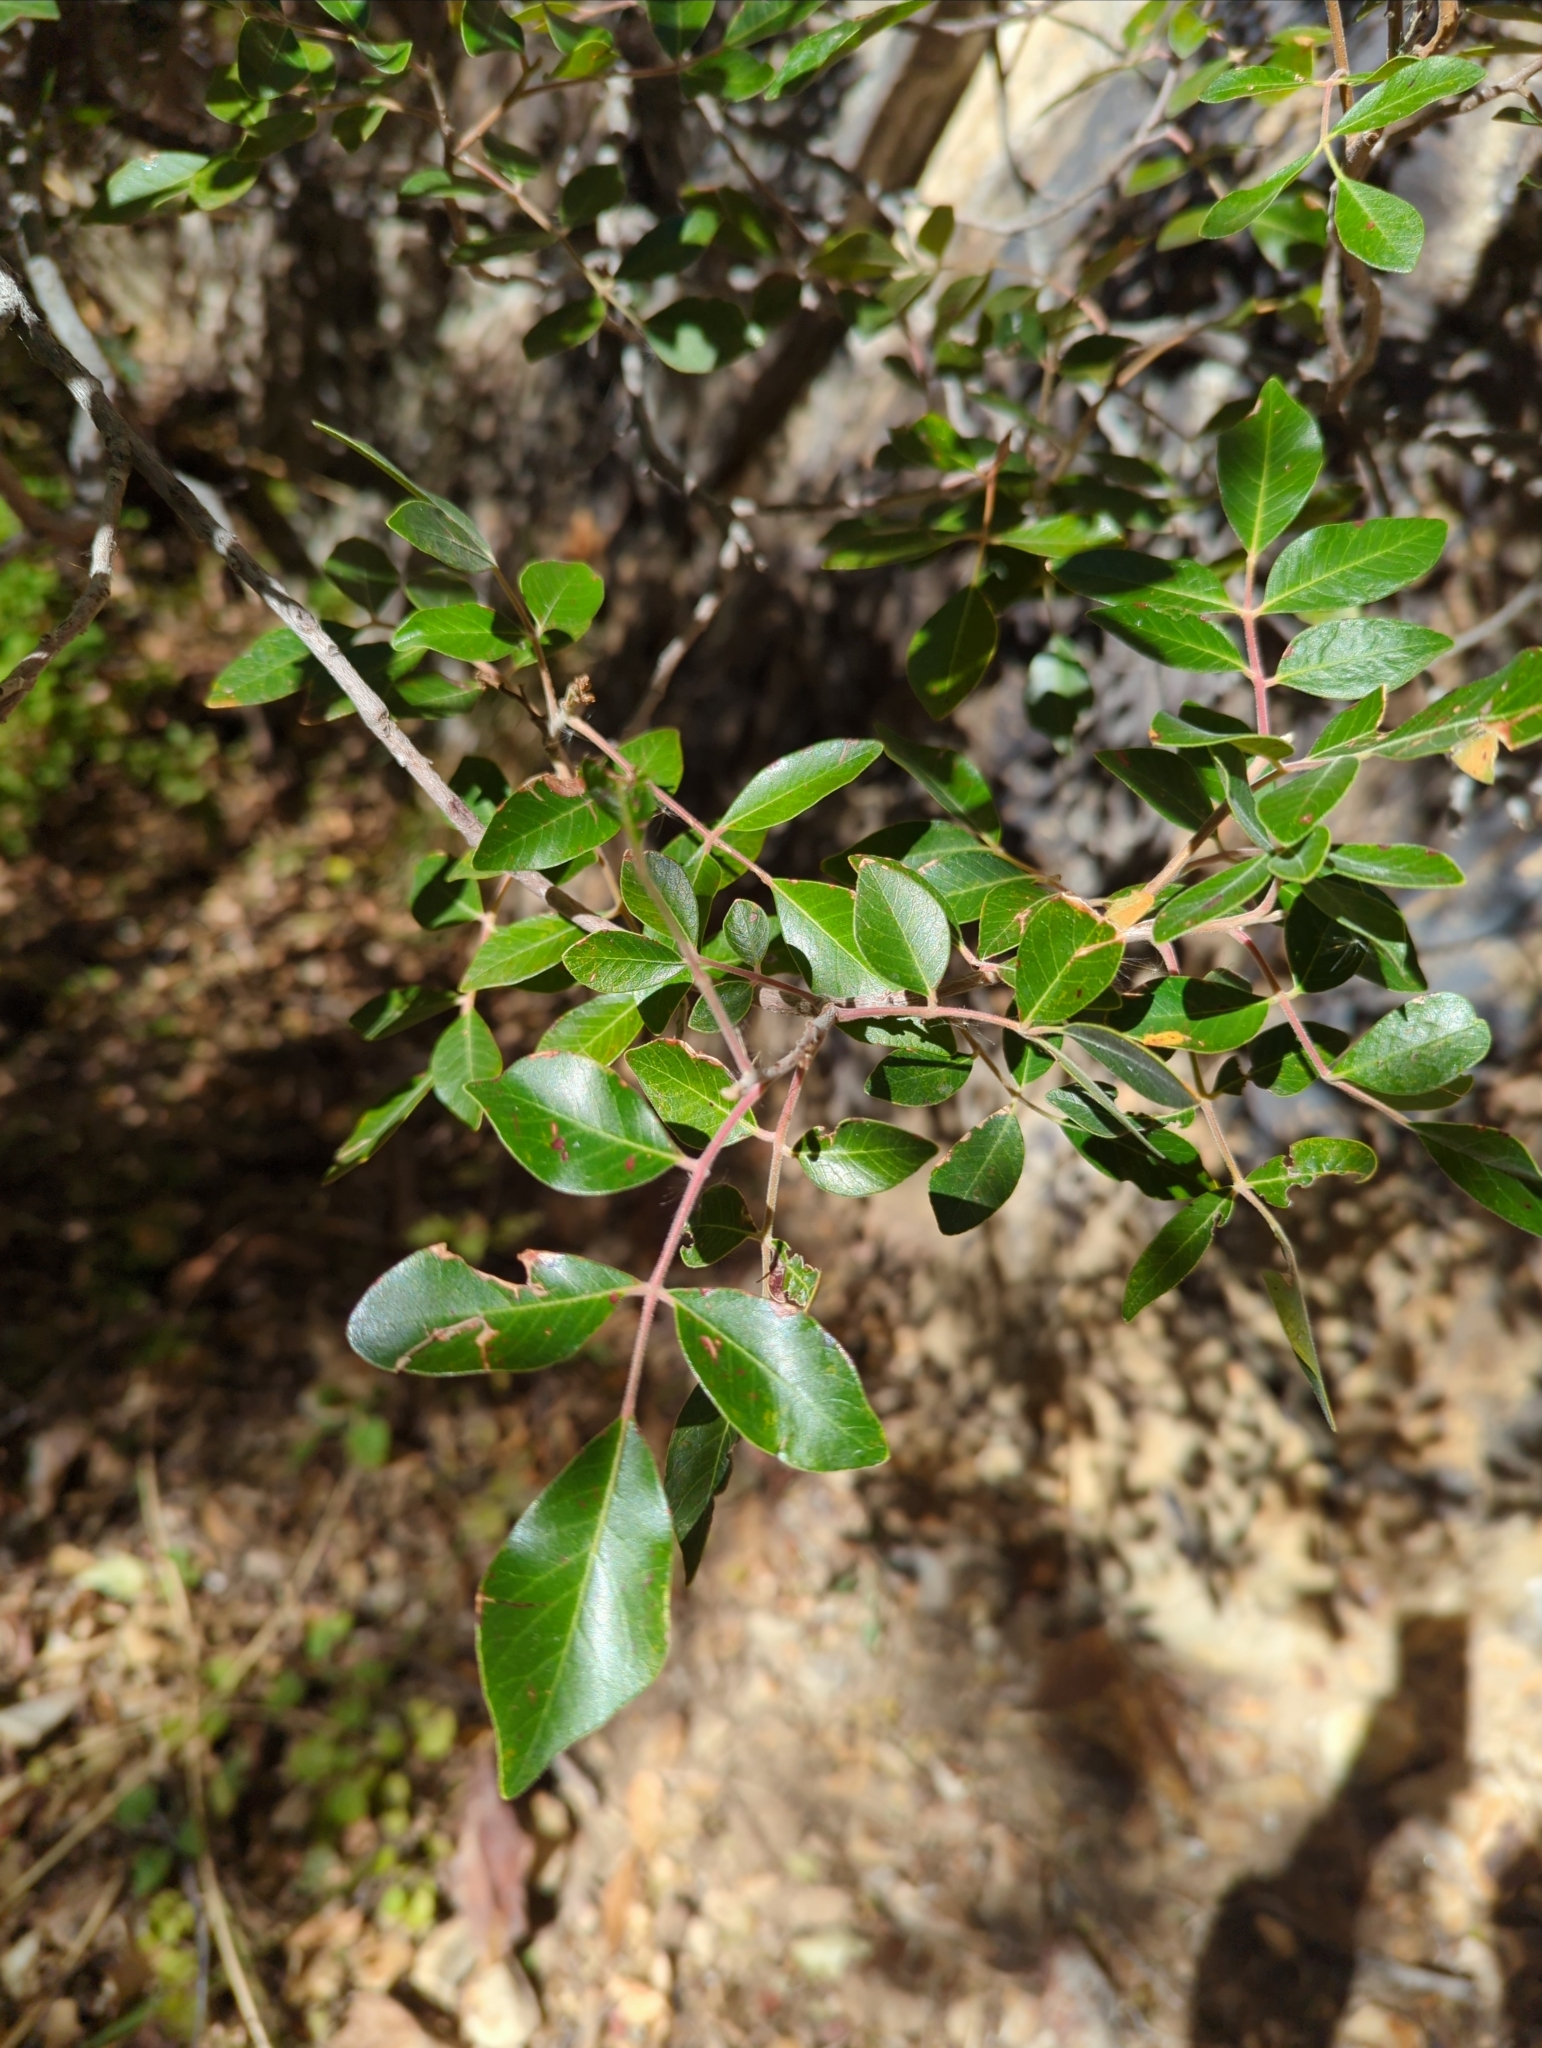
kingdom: Plantae
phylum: Tracheophyta
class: Magnoliopsida
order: Sapindales
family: Anacardiaceae
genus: Rhus
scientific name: Rhus virens
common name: Evergreen sumac
